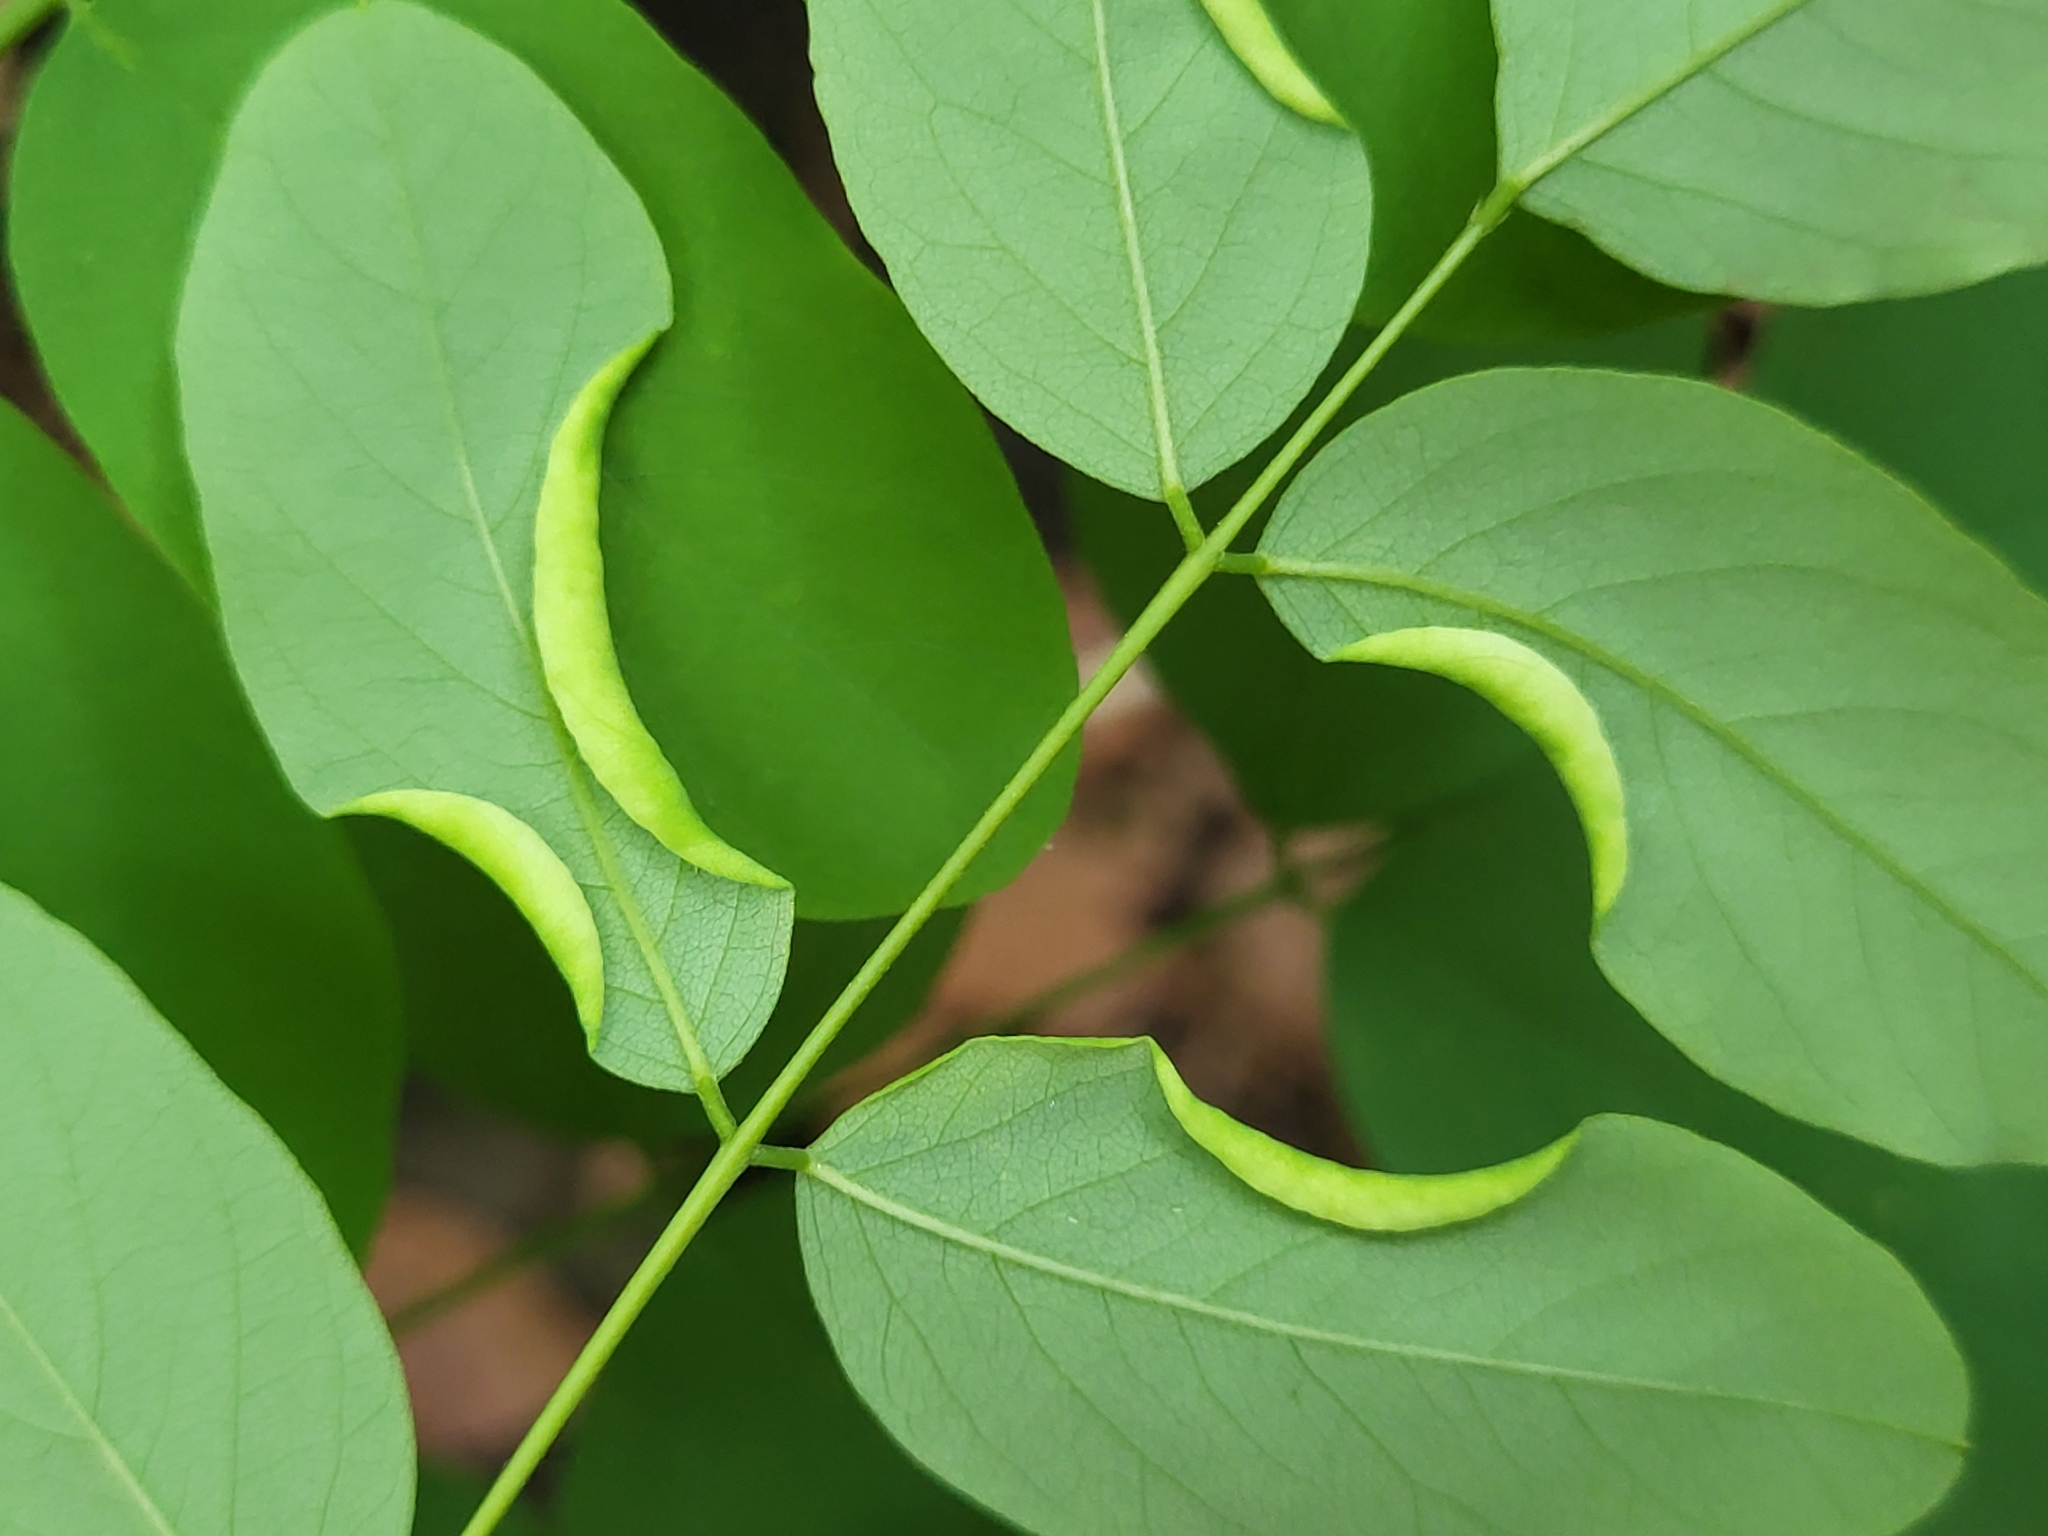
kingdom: Animalia
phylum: Arthropoda
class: Insecta
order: Diptera
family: Cecidomyiidae
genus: Obolodiplosis
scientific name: Obolodiplosis robiniae
